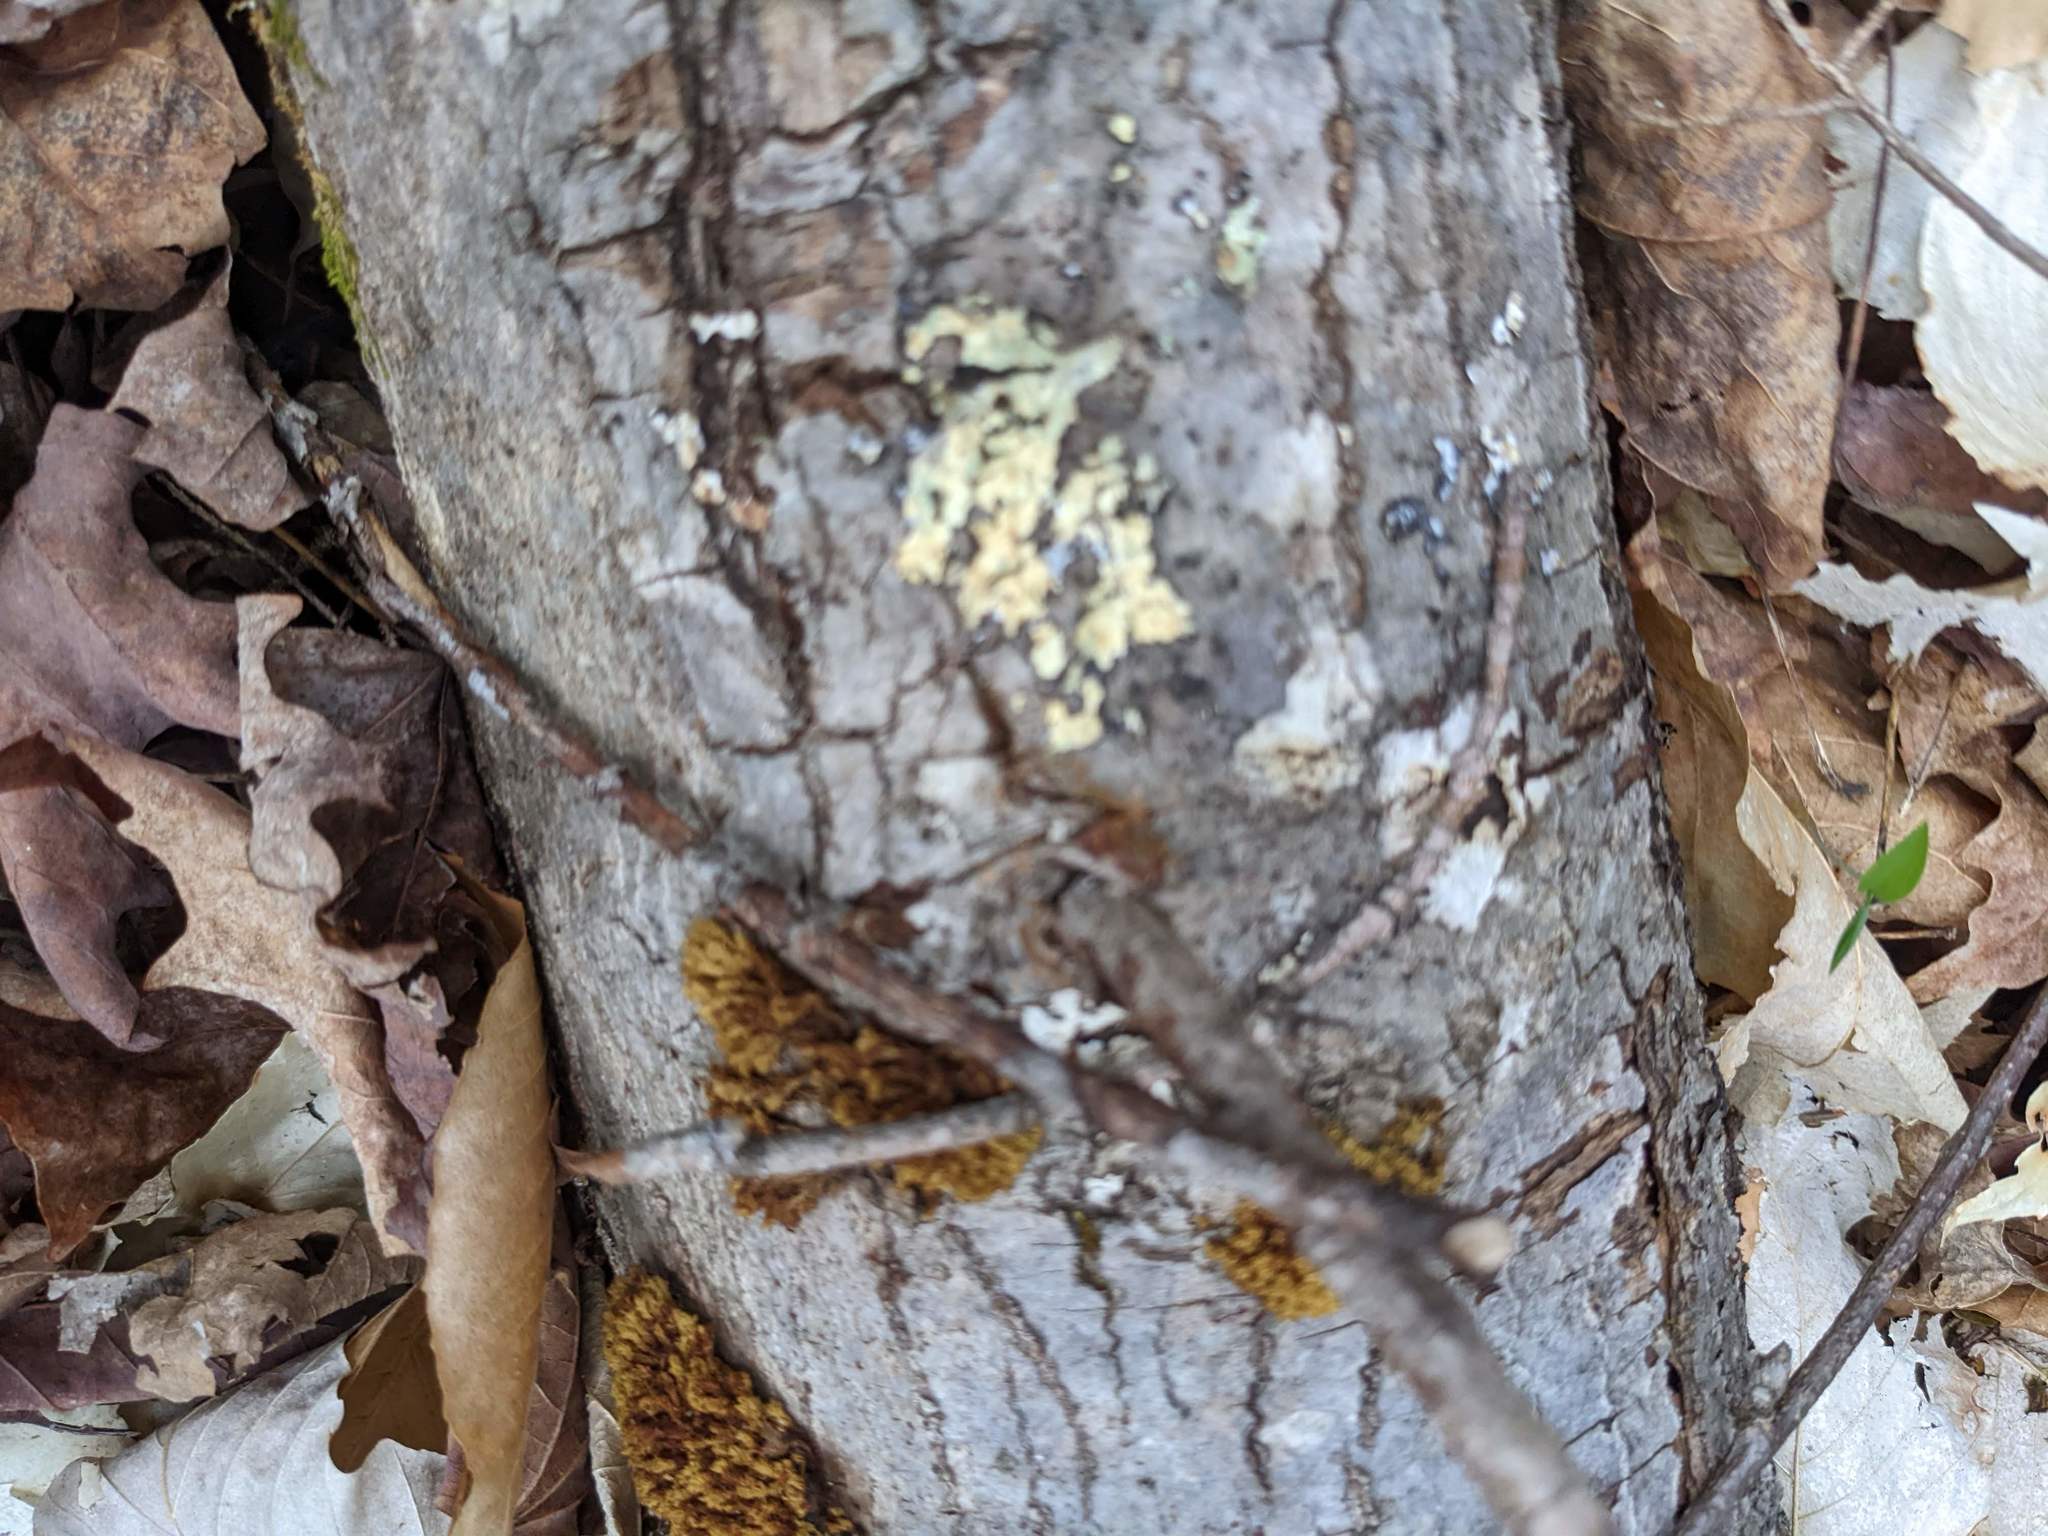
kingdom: Plantae
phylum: Bryophyta
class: Bryopsida
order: Orthotrichales
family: Orthotrichaceae
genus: Ulota
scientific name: Ulota crispa
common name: Crisped pincushion moss
